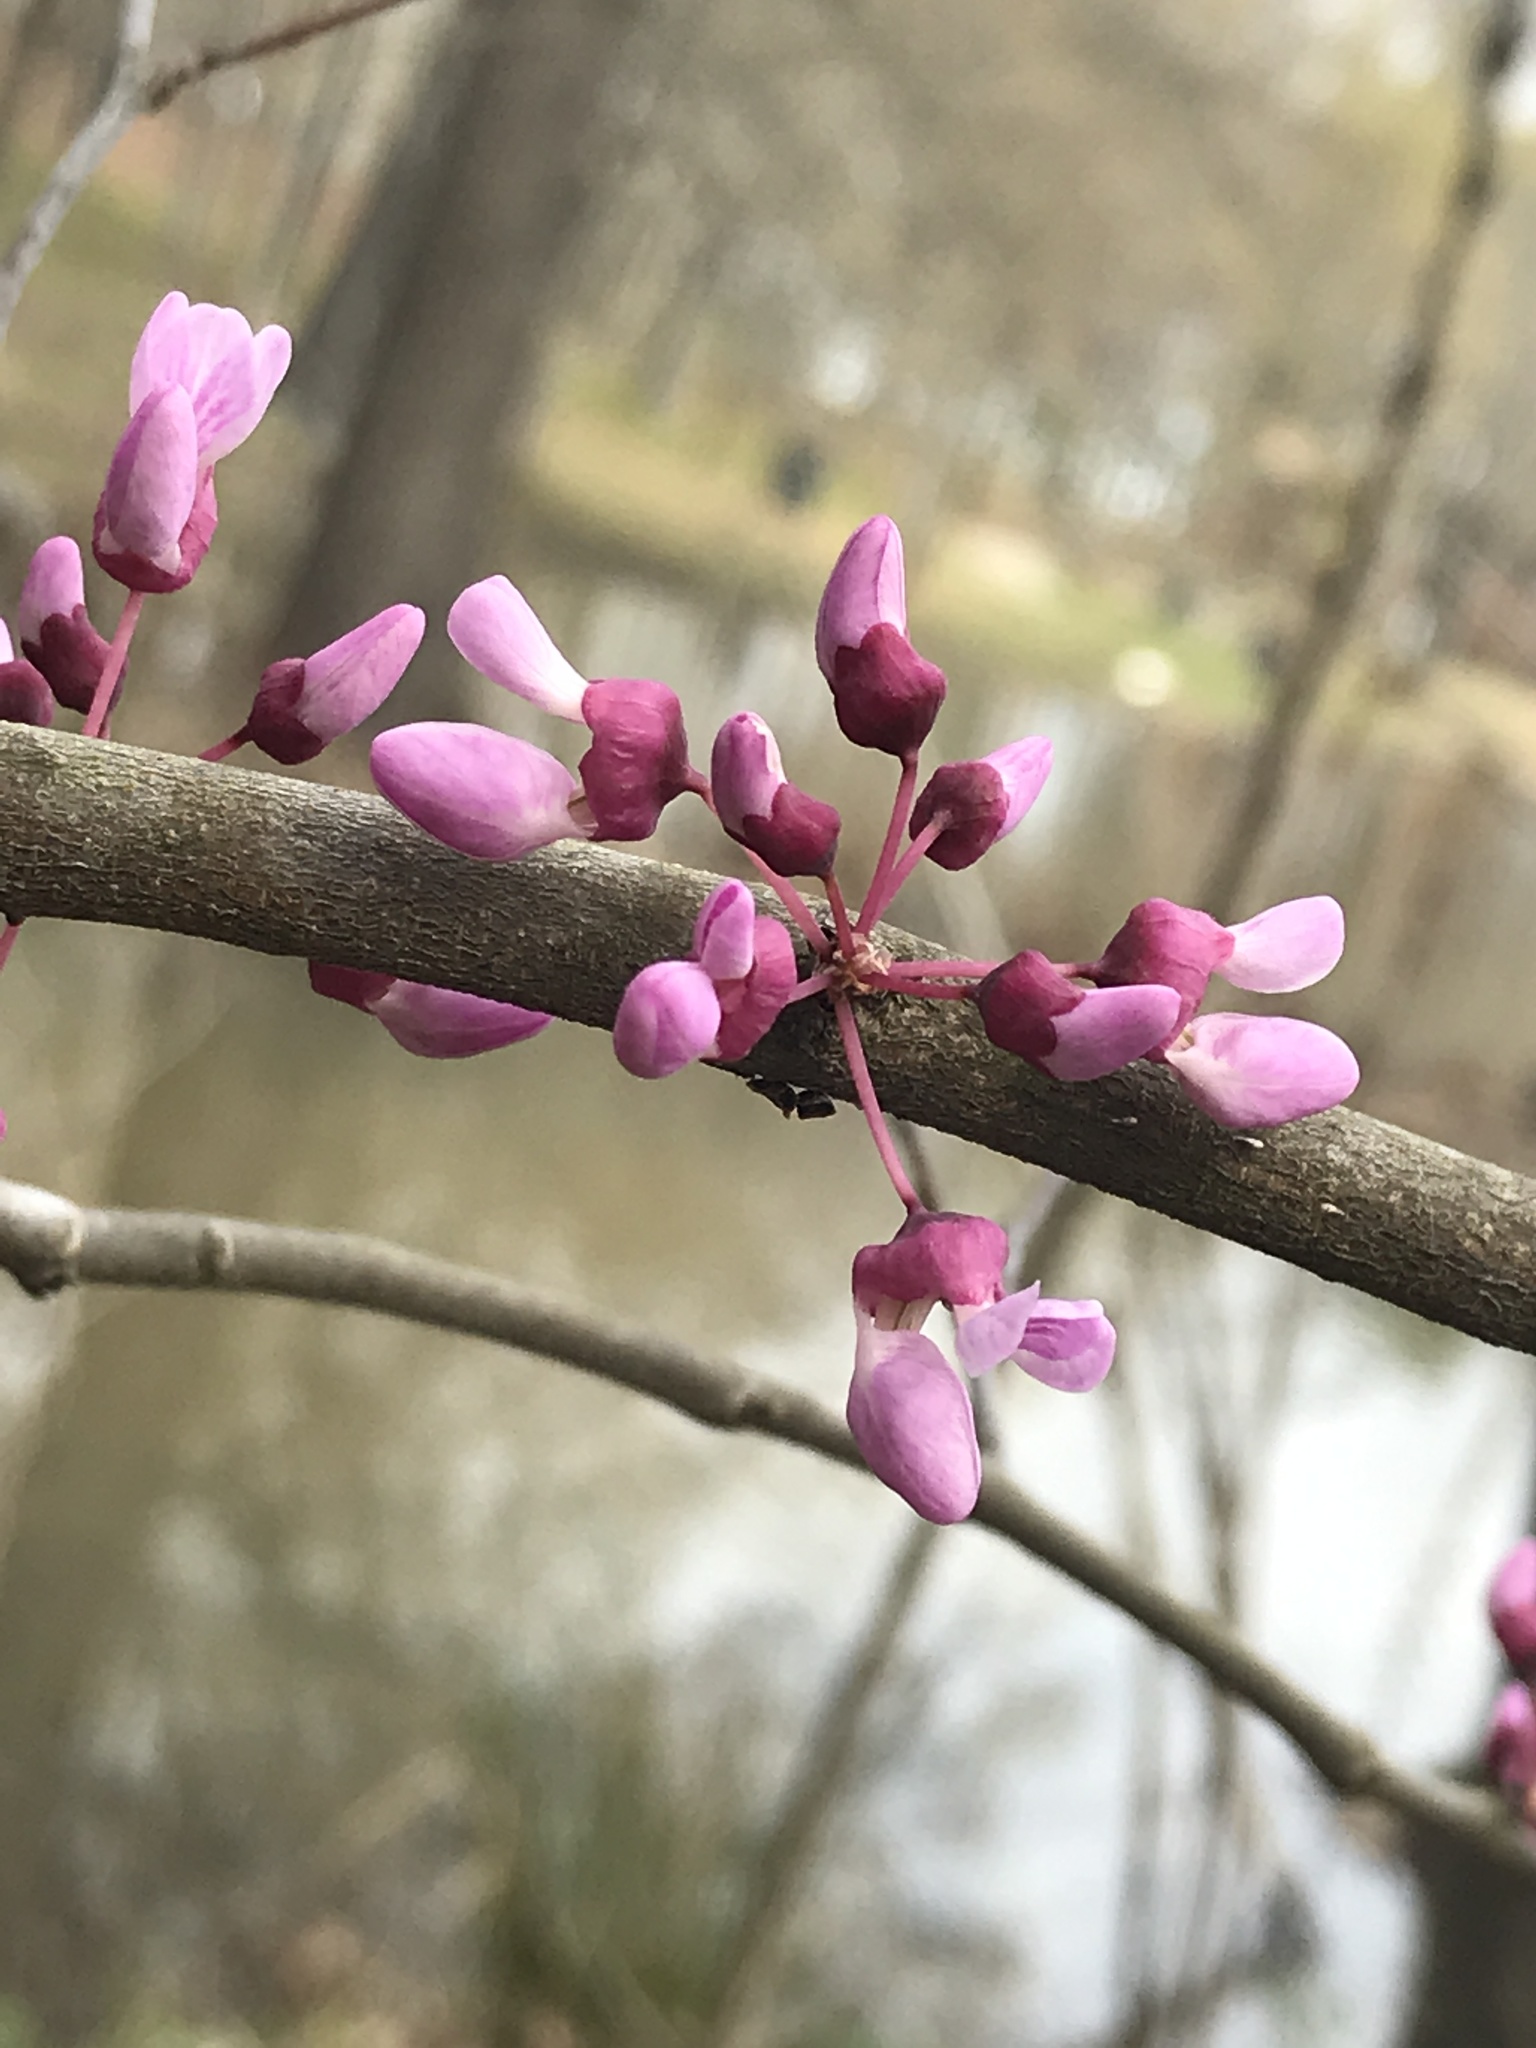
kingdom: Plantae
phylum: Tracheophyta
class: Magnoliopsida
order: Fabales
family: Fabaceae
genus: Cercis
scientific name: Cercis canadensis
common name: Eastern redbud
